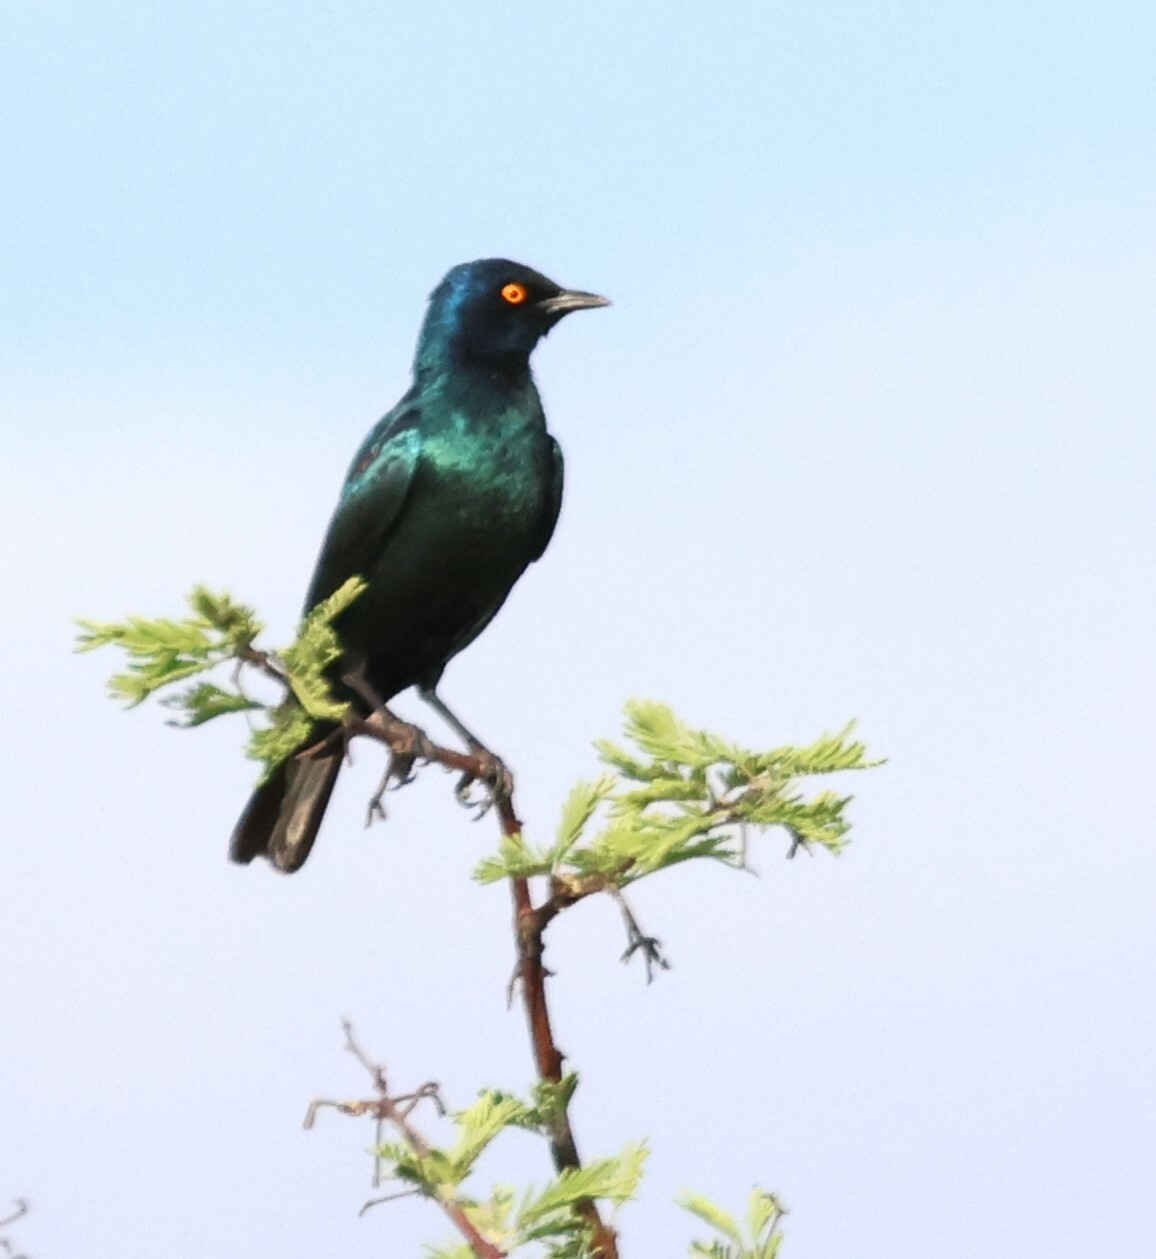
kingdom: Animalia
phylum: Chordata
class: Aves
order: Passeriformes
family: Sturnidae
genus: Lamprotornis
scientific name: Lamprotornis nitens
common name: Cape starling
